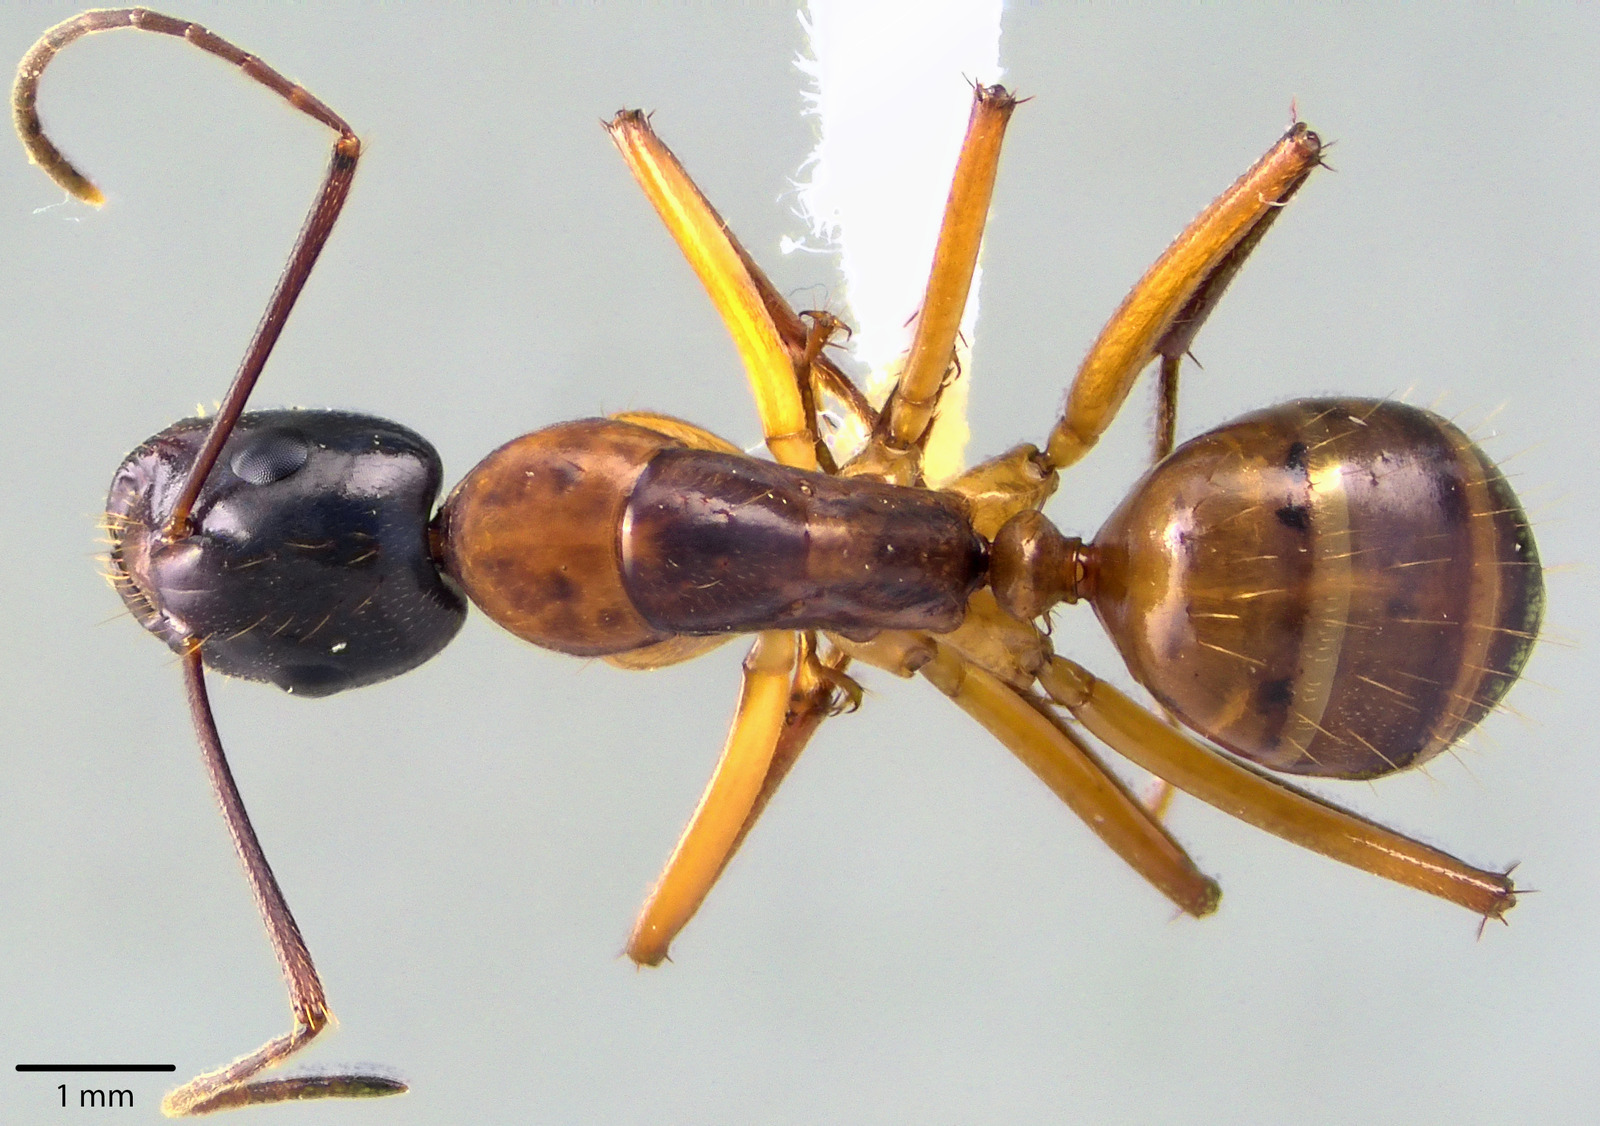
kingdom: Animalia
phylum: Arthropoda
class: Insecta
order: Hymenoptera
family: Formicidae
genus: Camponotus
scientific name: Camponotus americanus
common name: American carpenter ant
